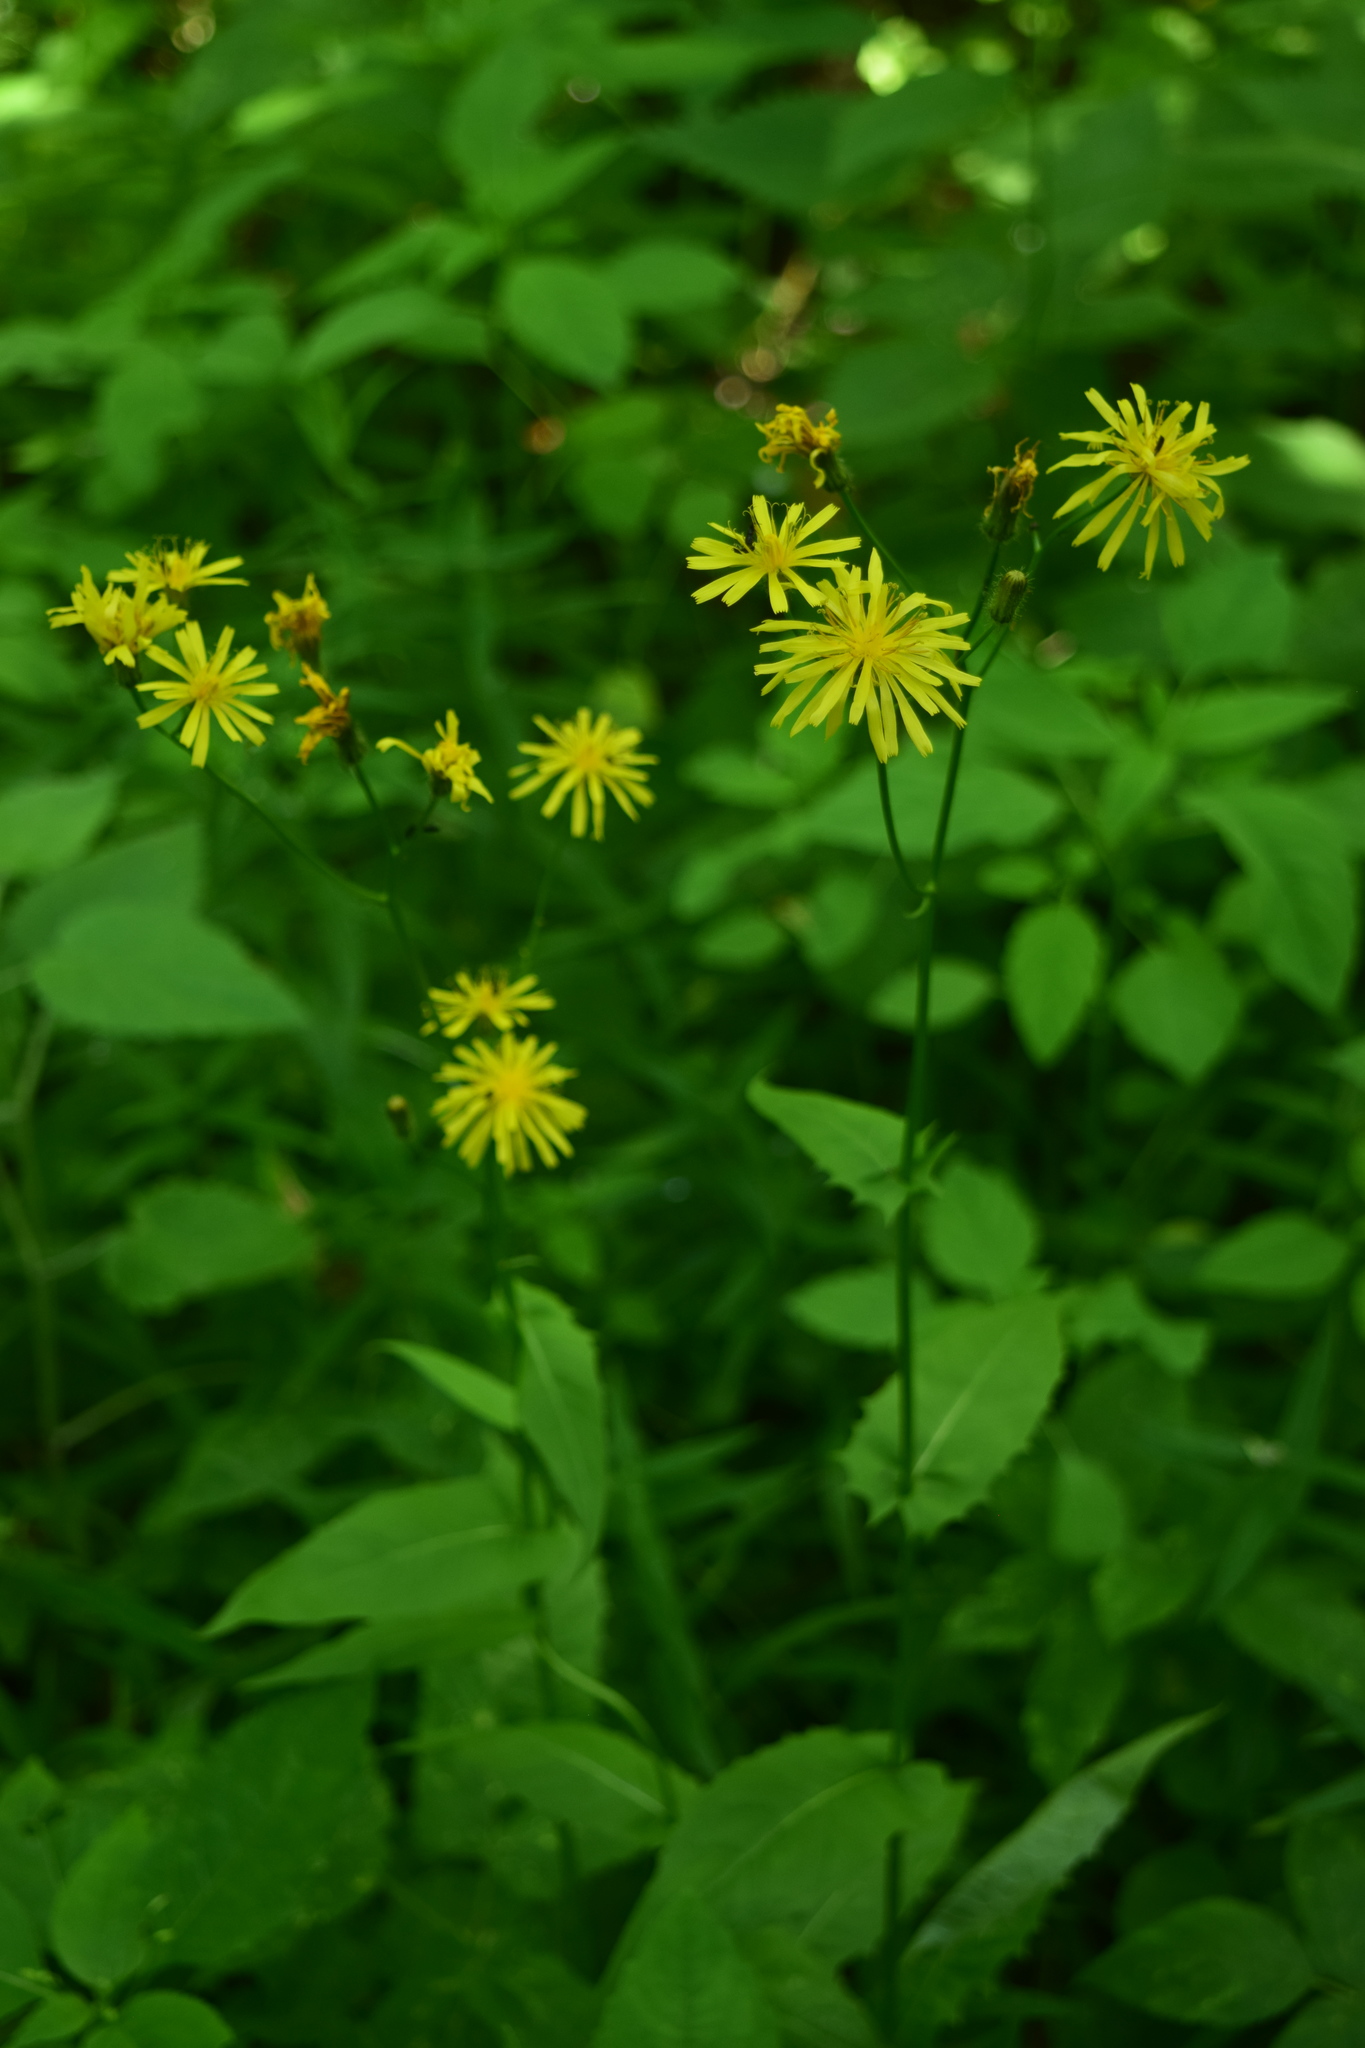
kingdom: Plantae
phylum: Tracheophyta
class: Magnoliopsida
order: Asterales
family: Asteraceae
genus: Crepis
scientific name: Crepis paludosa
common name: Marsh hawk's-beard
